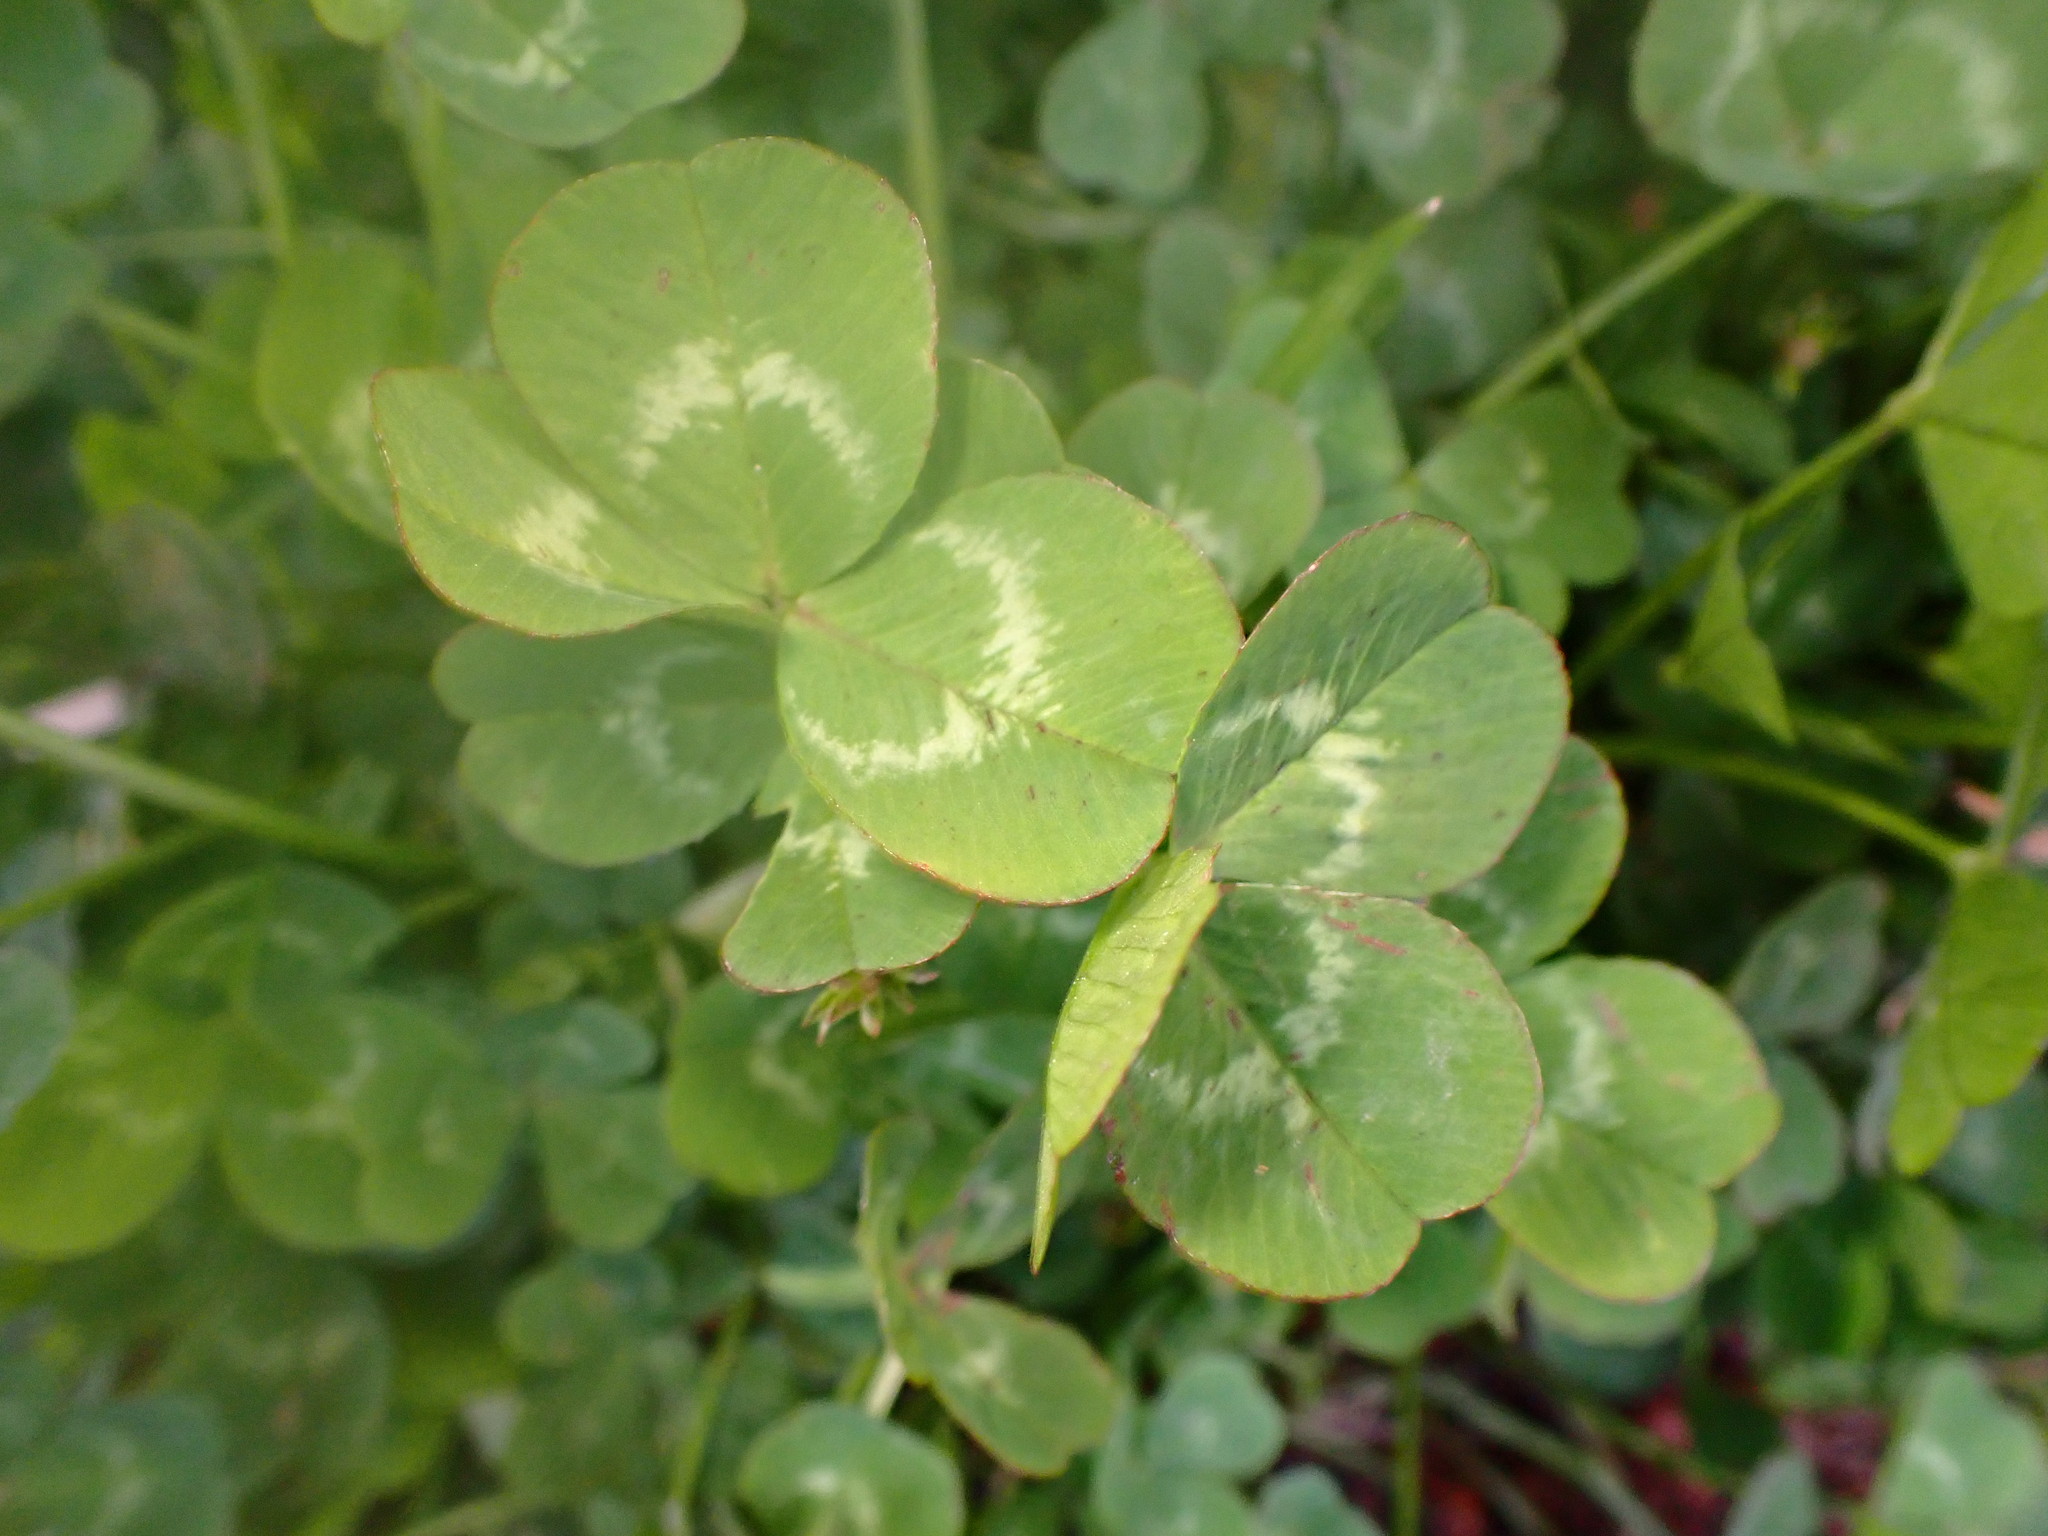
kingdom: Plantae
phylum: Tracheophyta
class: Magnoliopsida
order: Fabales
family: Fabaceae
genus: Trifolium
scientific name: Trifolium repens
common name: White clover
